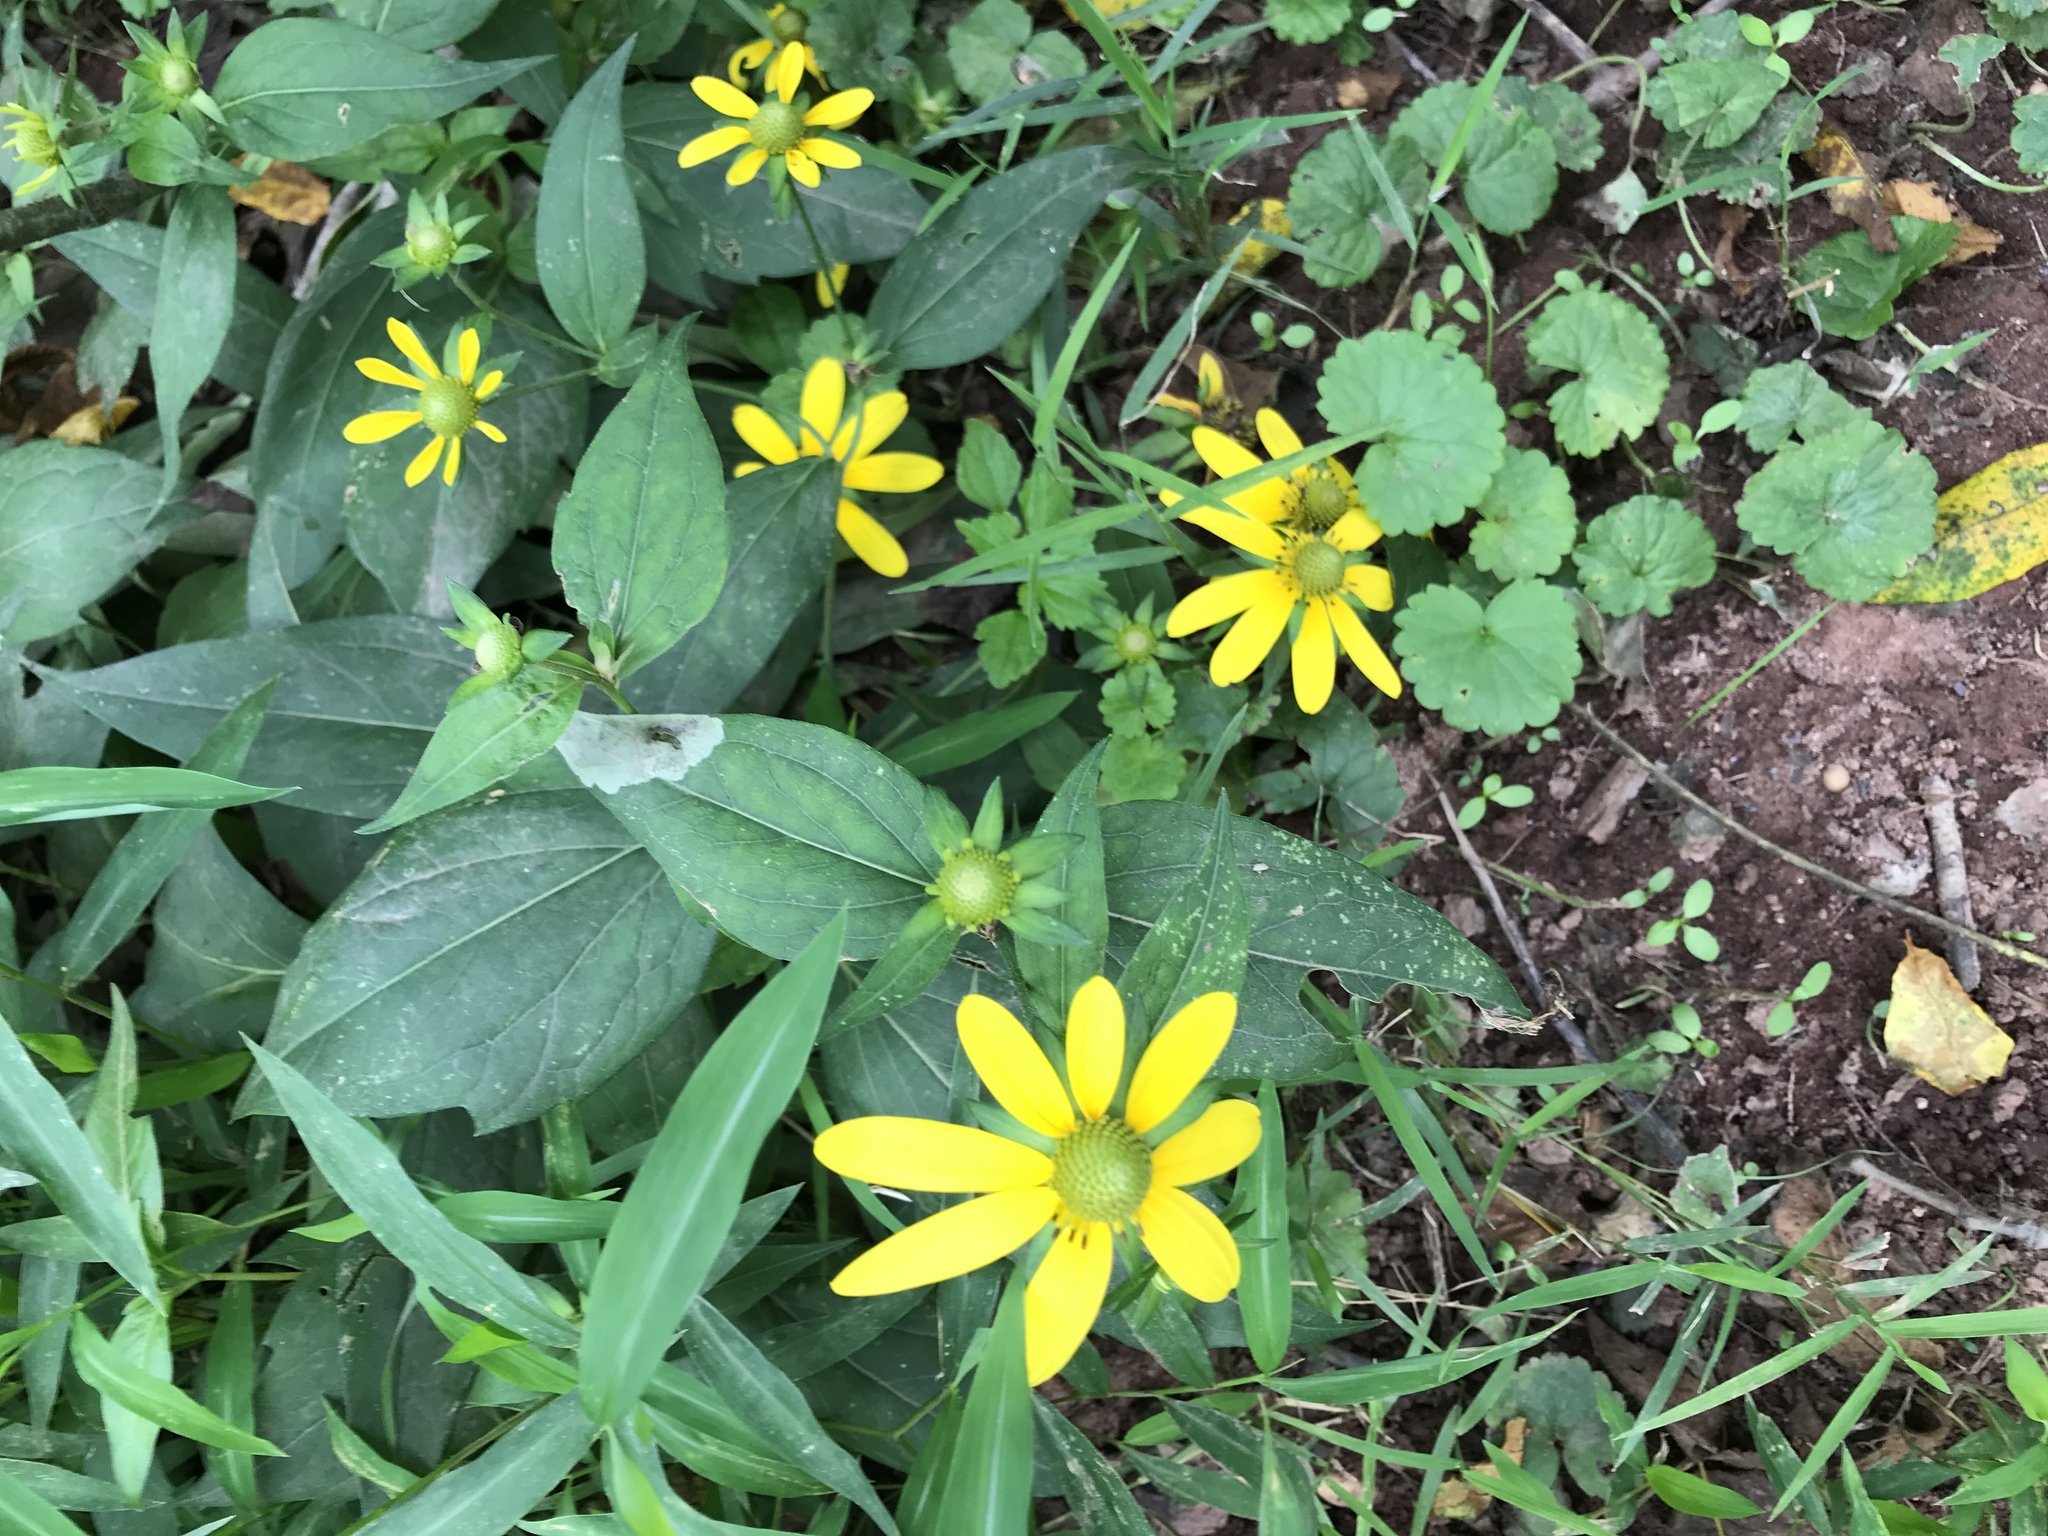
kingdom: Plantae
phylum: Tracheophyta
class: Magnoliopsida
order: Asterales
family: Asteraceae
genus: Rudbeckia
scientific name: Rudbeckia laciniata
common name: Coneflower
